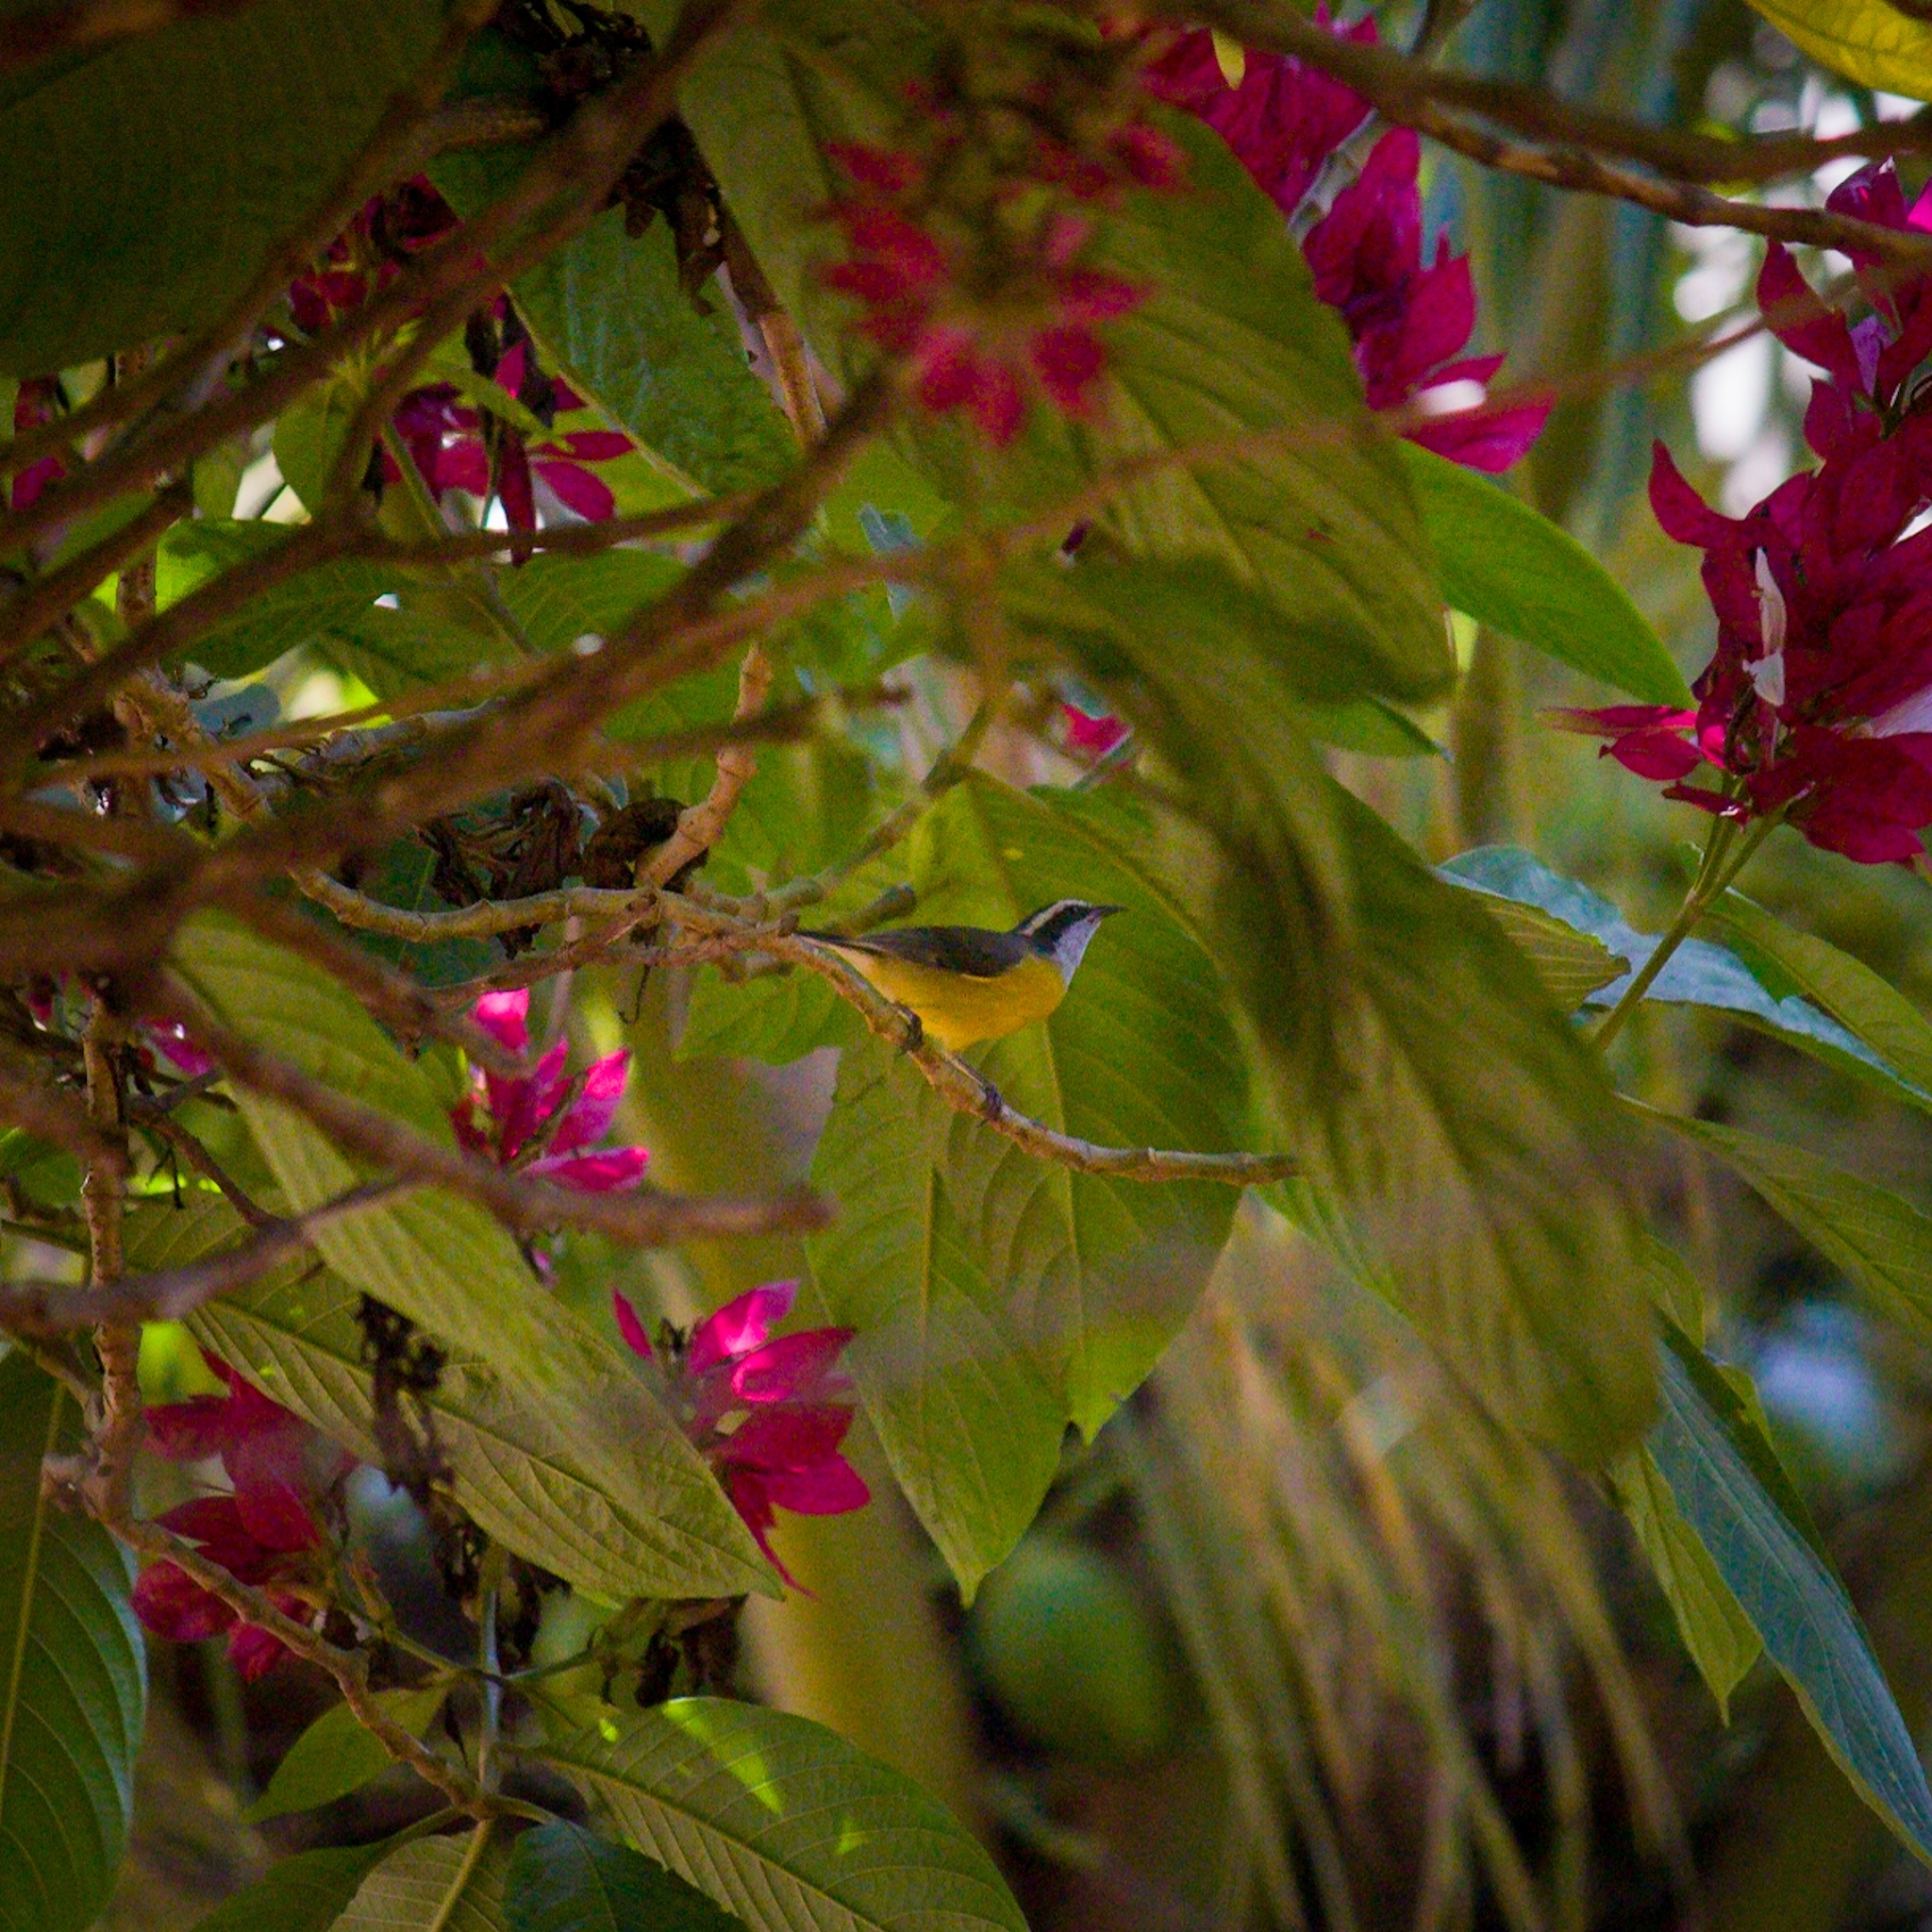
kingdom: Animalia
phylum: Chordata
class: Aves
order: Passeriformes
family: Thraupidae
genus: Coereba
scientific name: Coereba flaveola
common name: Bananaquit
